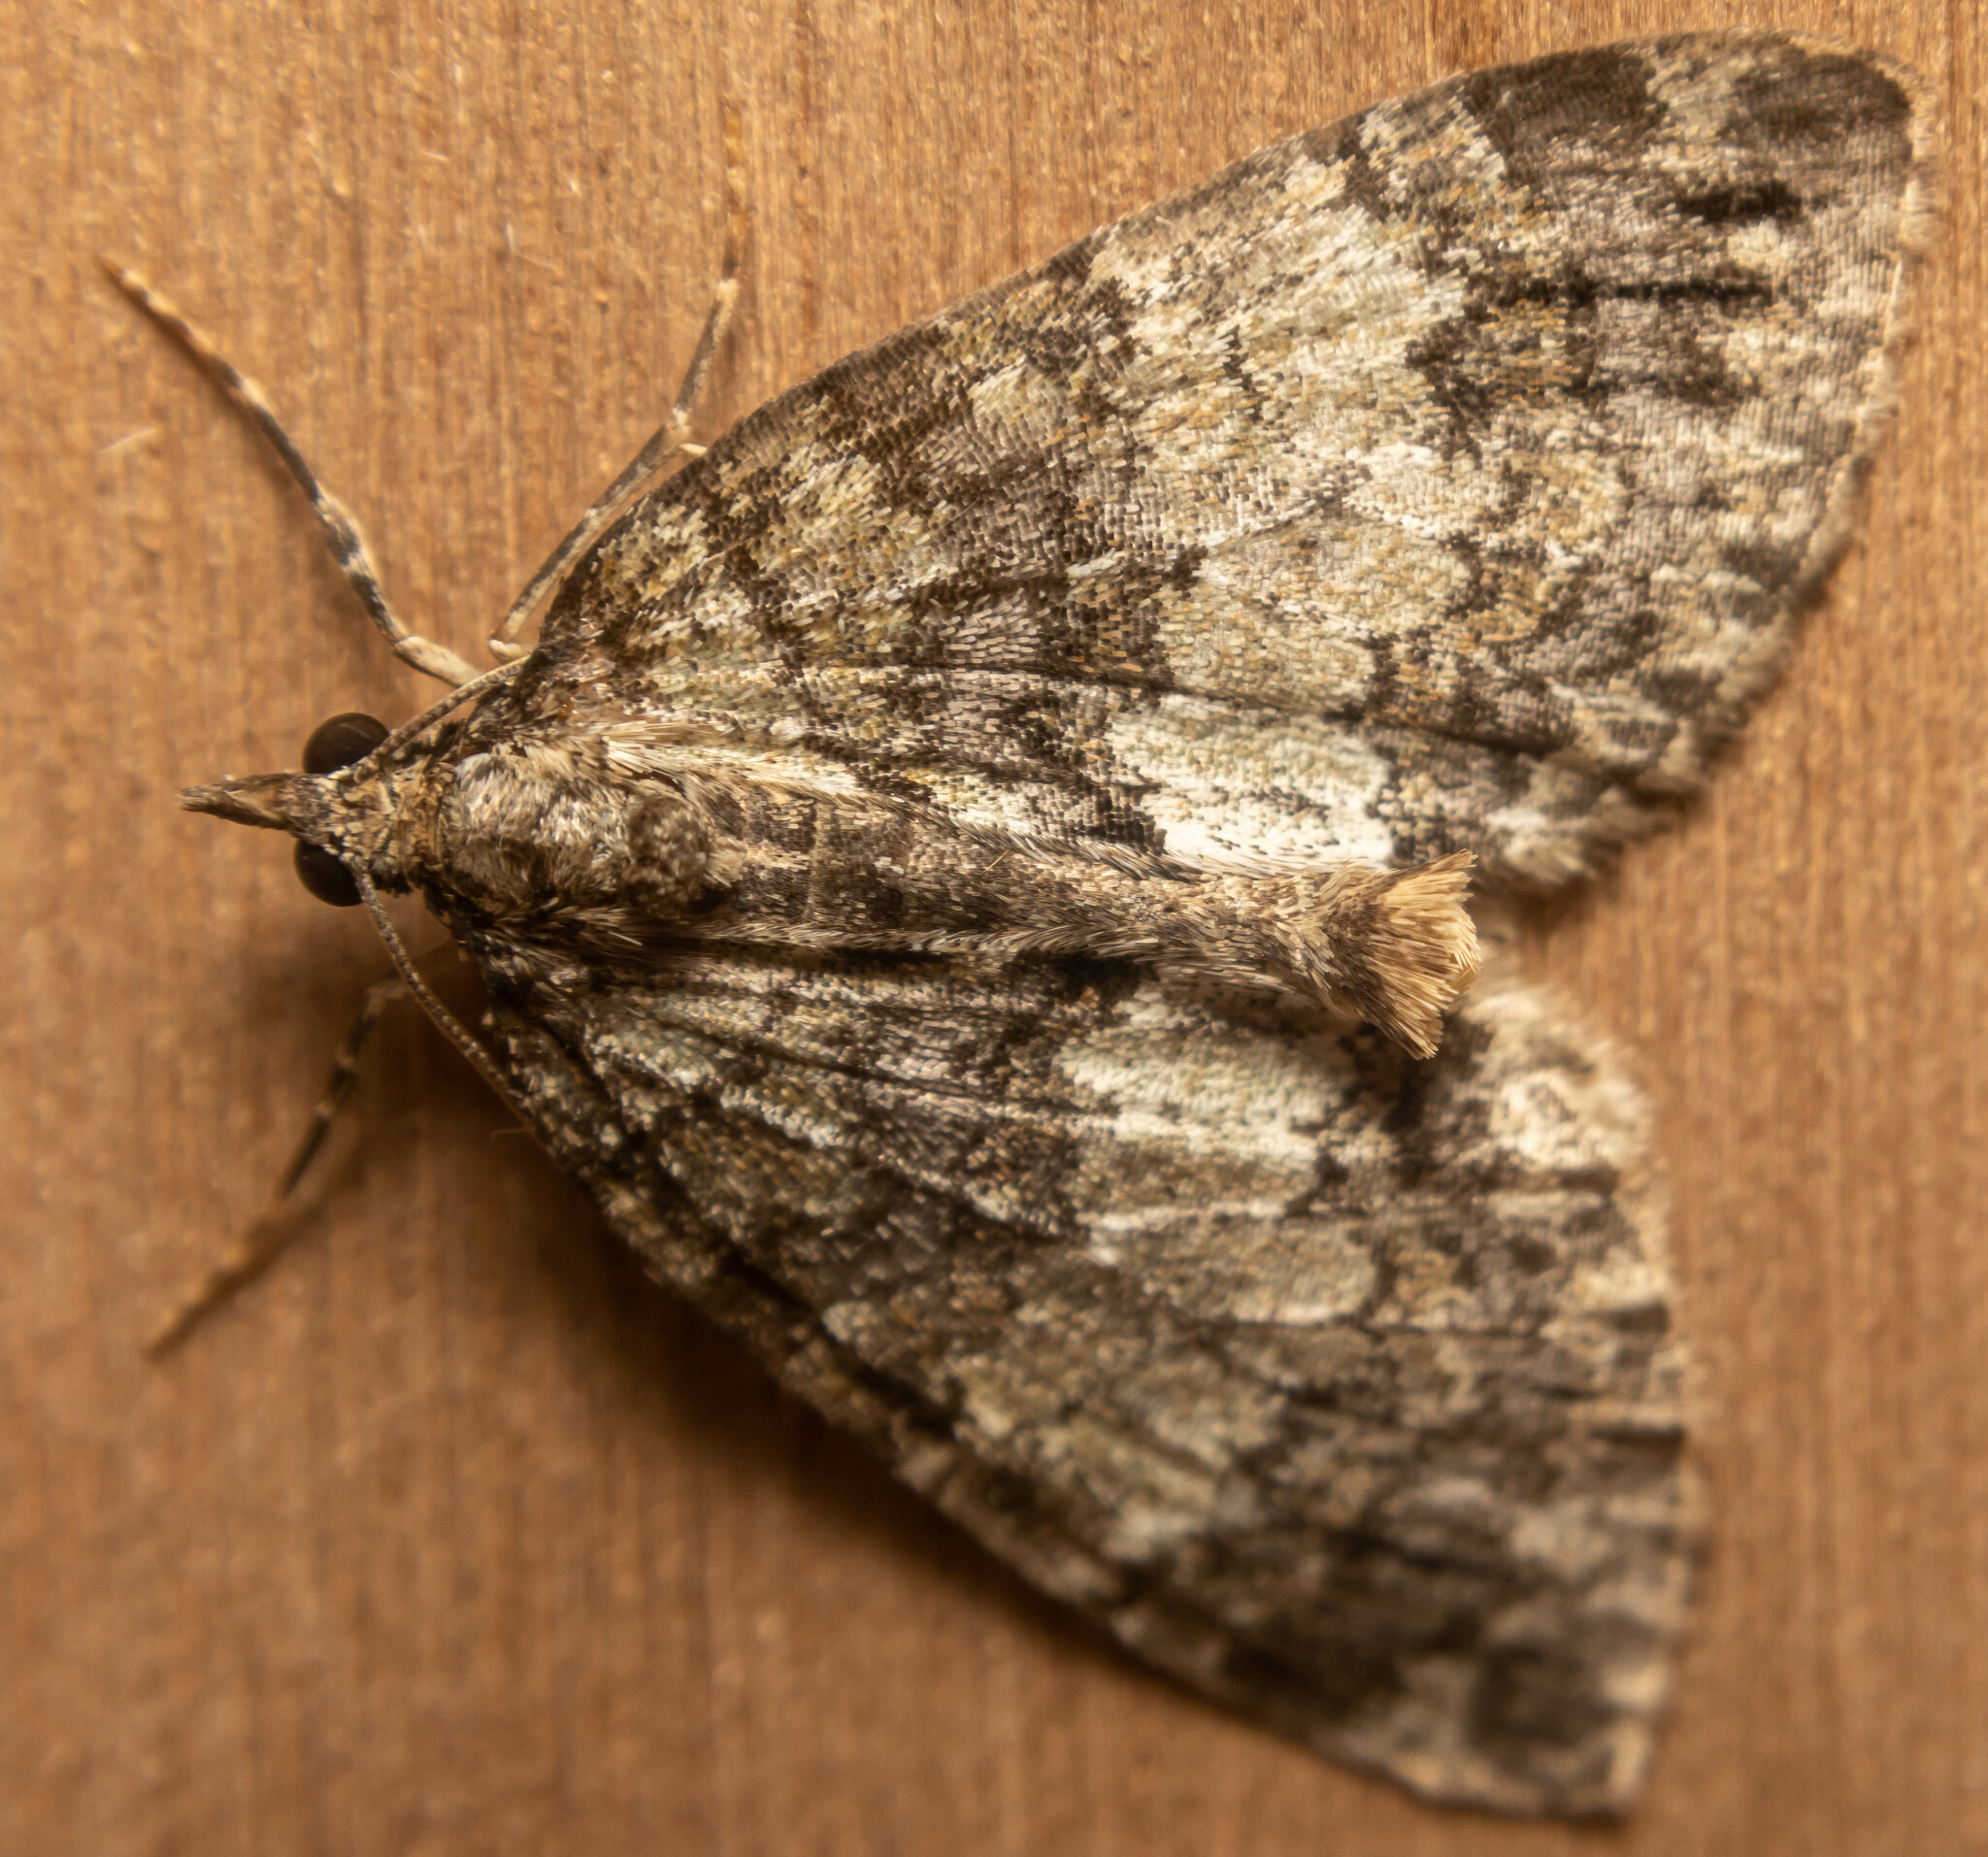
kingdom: Animalia
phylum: Arthropoda
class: Insecta
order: Lepidoptera
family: Geometridae
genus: Hydriomena
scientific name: Hydriomena impluviata
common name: May highflyer
